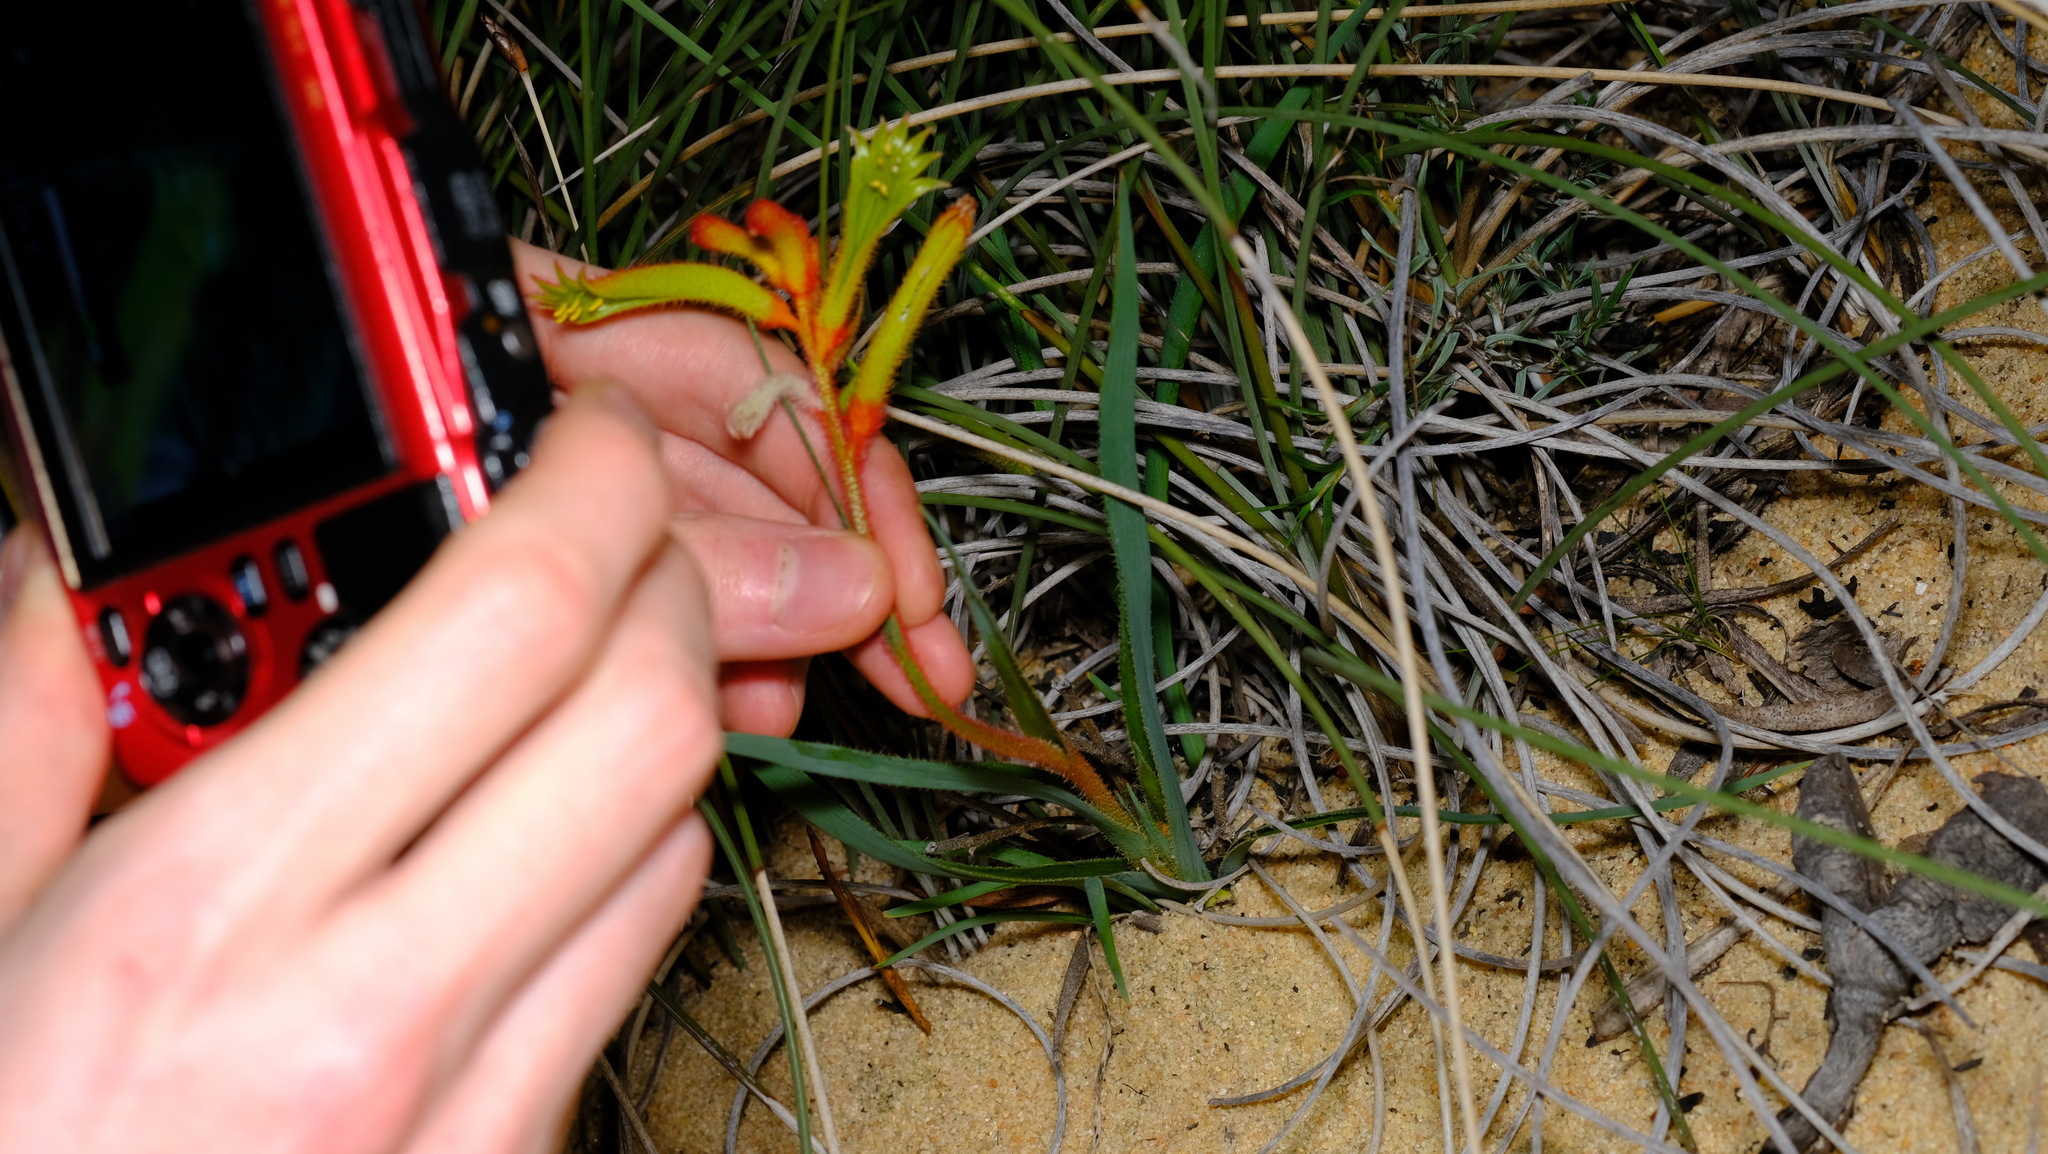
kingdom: Plantae
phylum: Tracheophyta
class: Liliopsida
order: Commelinales
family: Haemodoraceae
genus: Anigozanthos
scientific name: Anigozanthos humilis
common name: Cat's-paw
